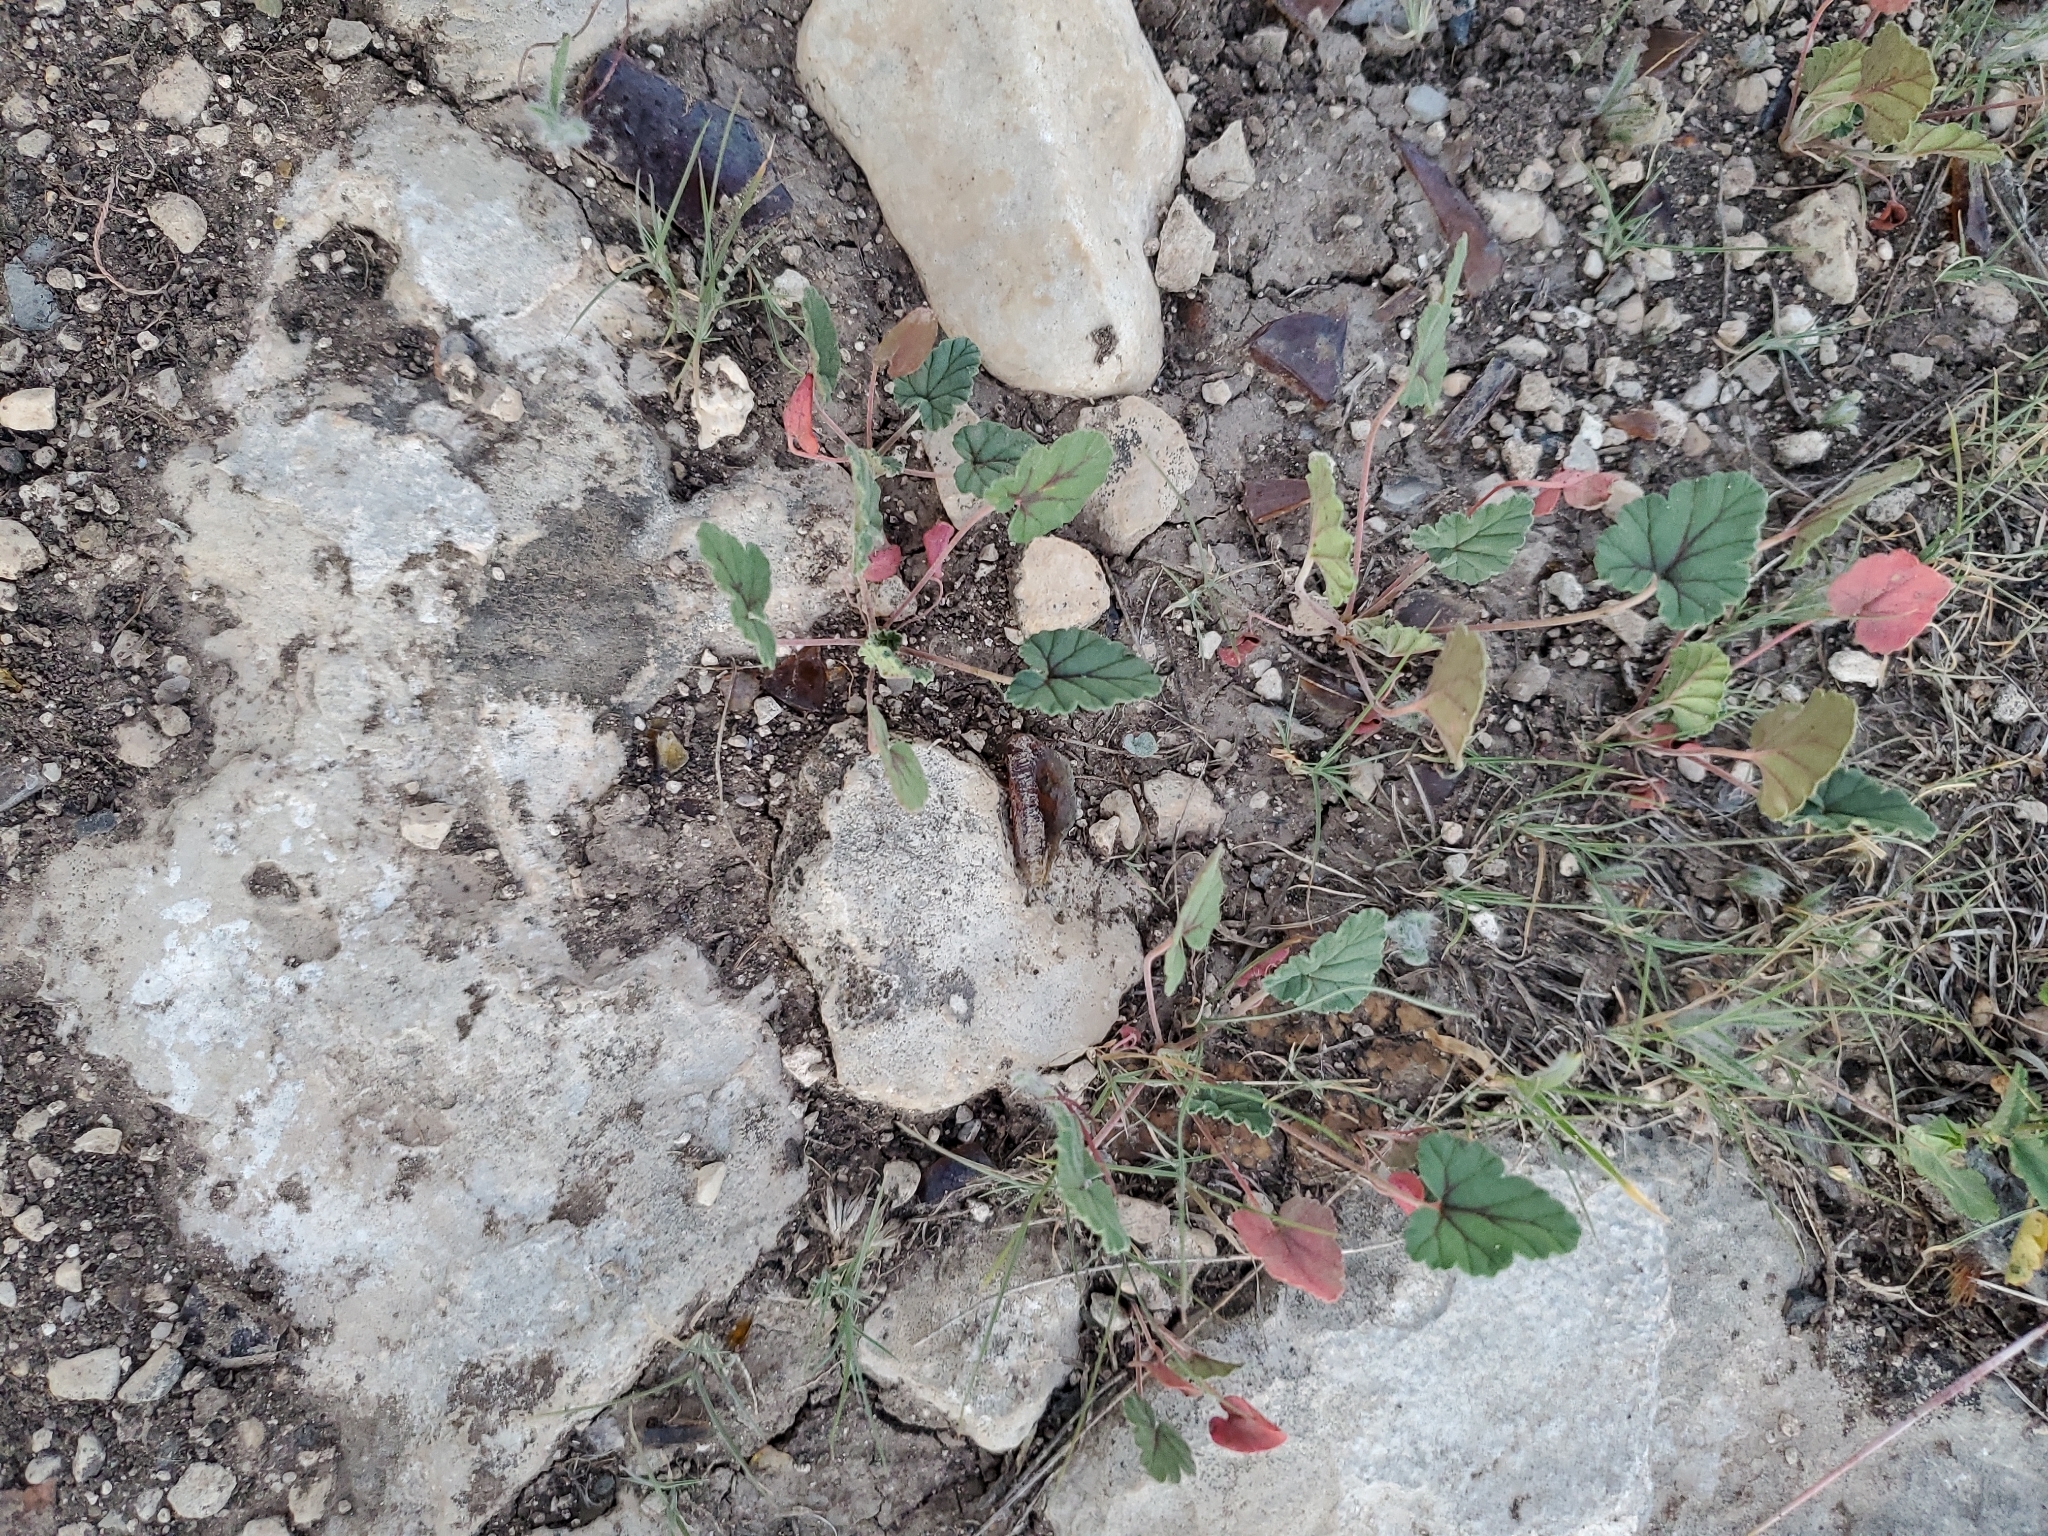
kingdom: Plantae
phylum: Tracheophyta
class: Magnoliopsida
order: Geraniales
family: Geraniaceae
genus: Erodium
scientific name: Erodium texanum
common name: Texas stork's-bill
